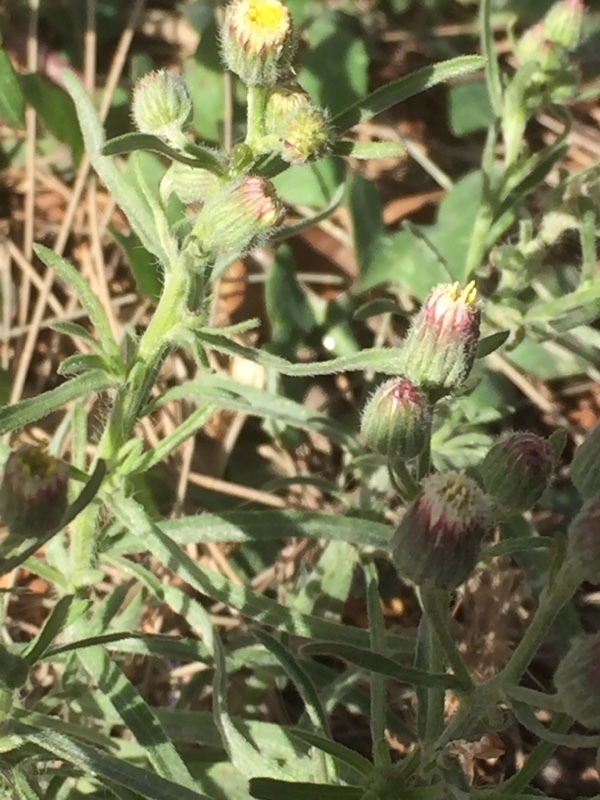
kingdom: Plantae
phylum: Tracheophyta
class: Magnoliopsida
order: Asterales
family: Asteraceae
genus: Erigeron
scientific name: Erigeron bonariensis
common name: Argentine fleabane
